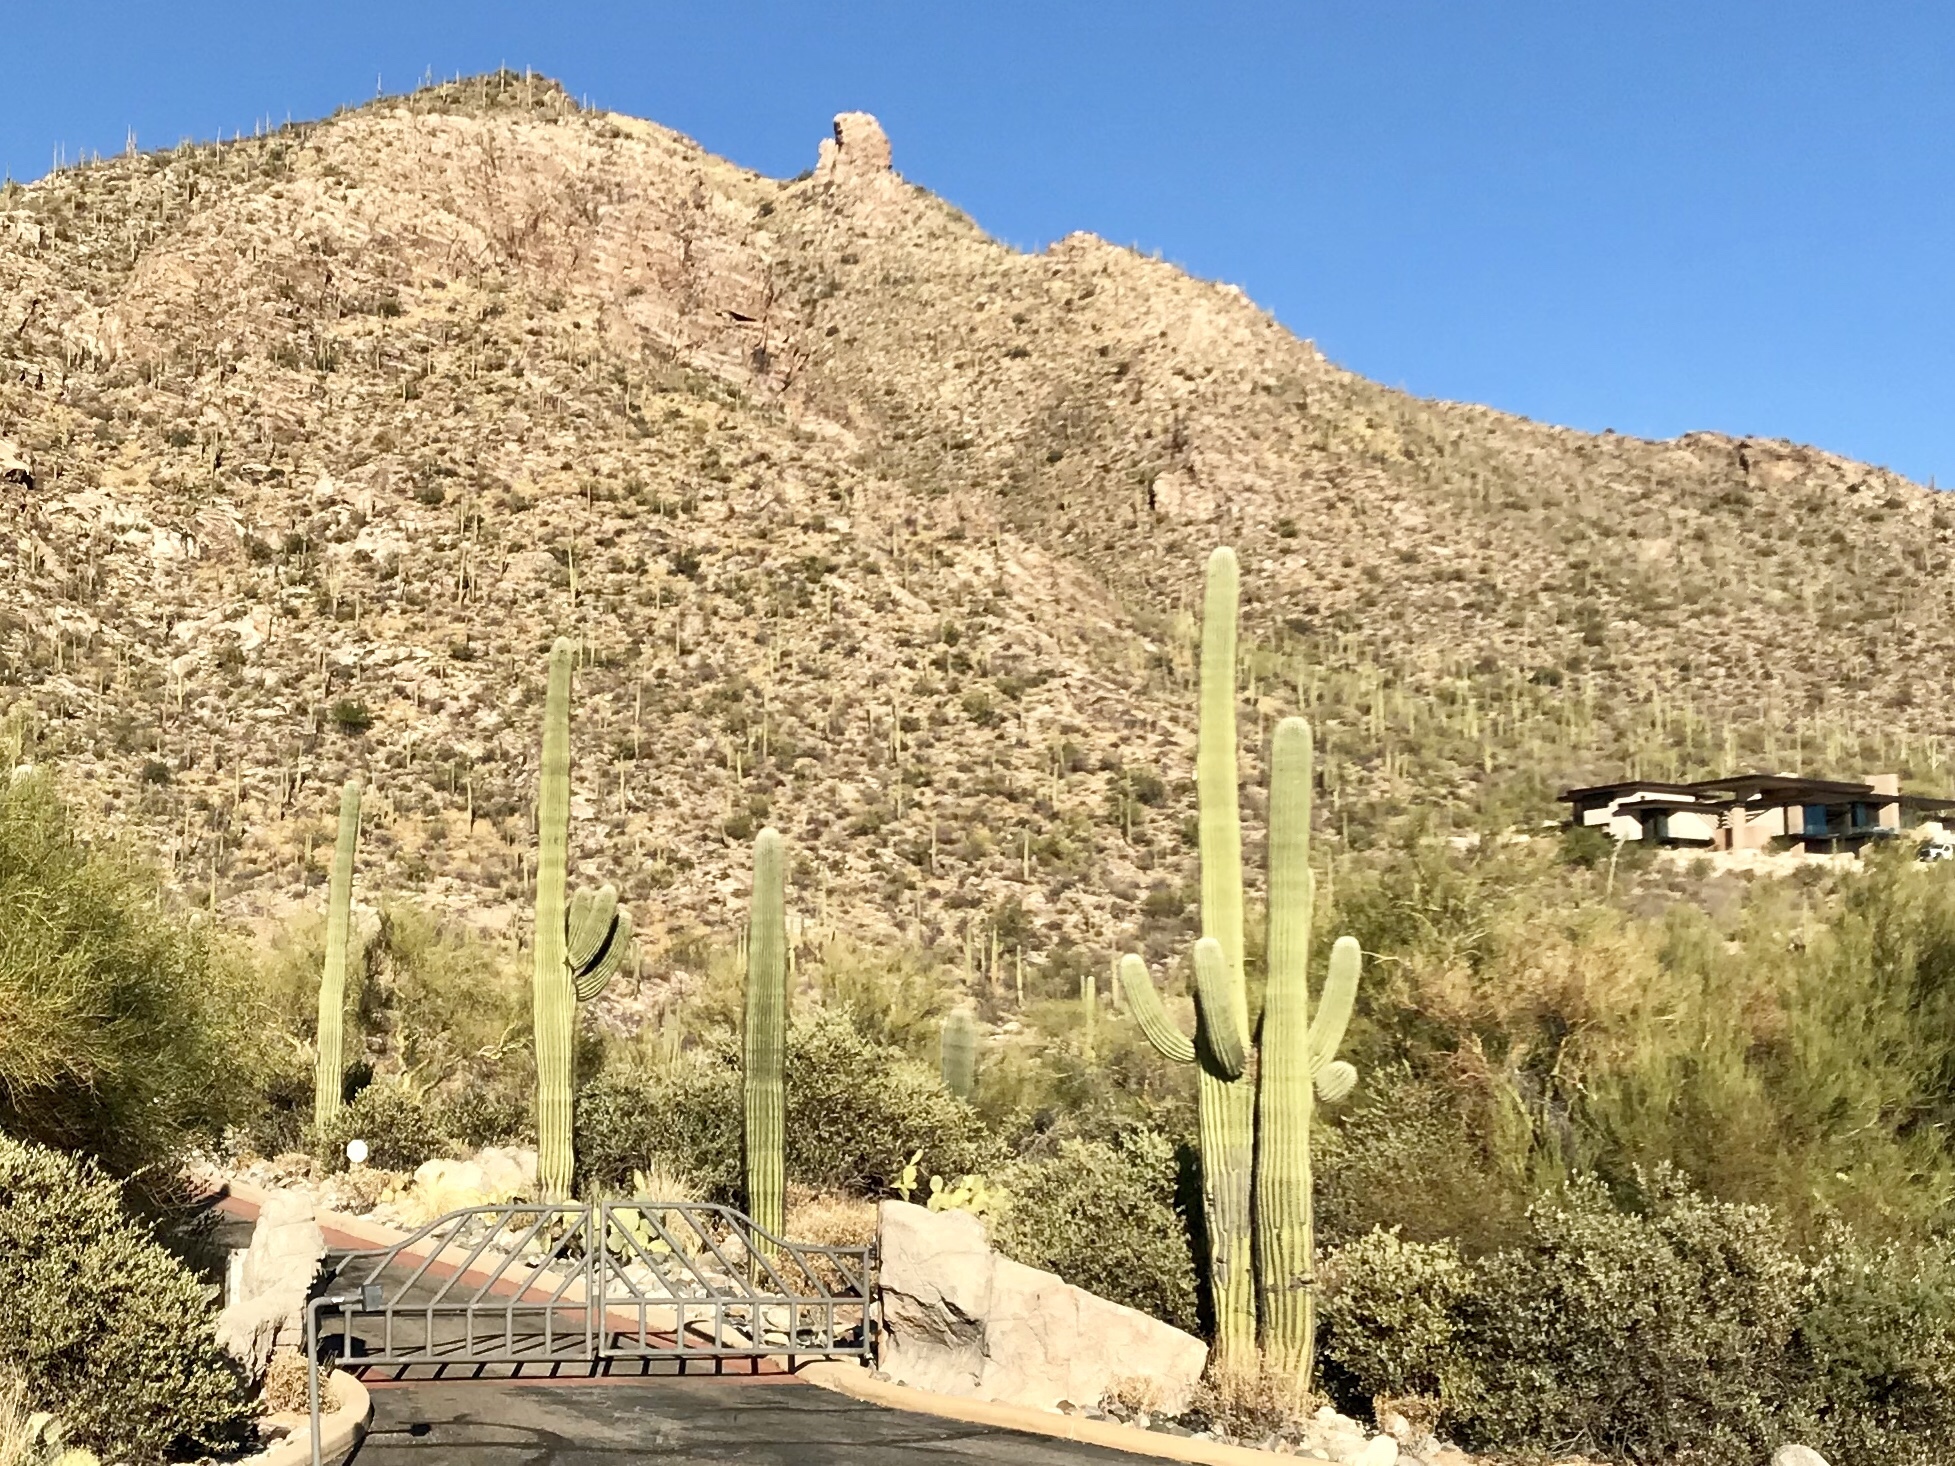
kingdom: Plantae
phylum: Tracheophyta
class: Magnoliopsida
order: Caryophyllales
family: Cactaceae
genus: Carnegiea
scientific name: Carnegiea gigantea
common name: Saguaro
